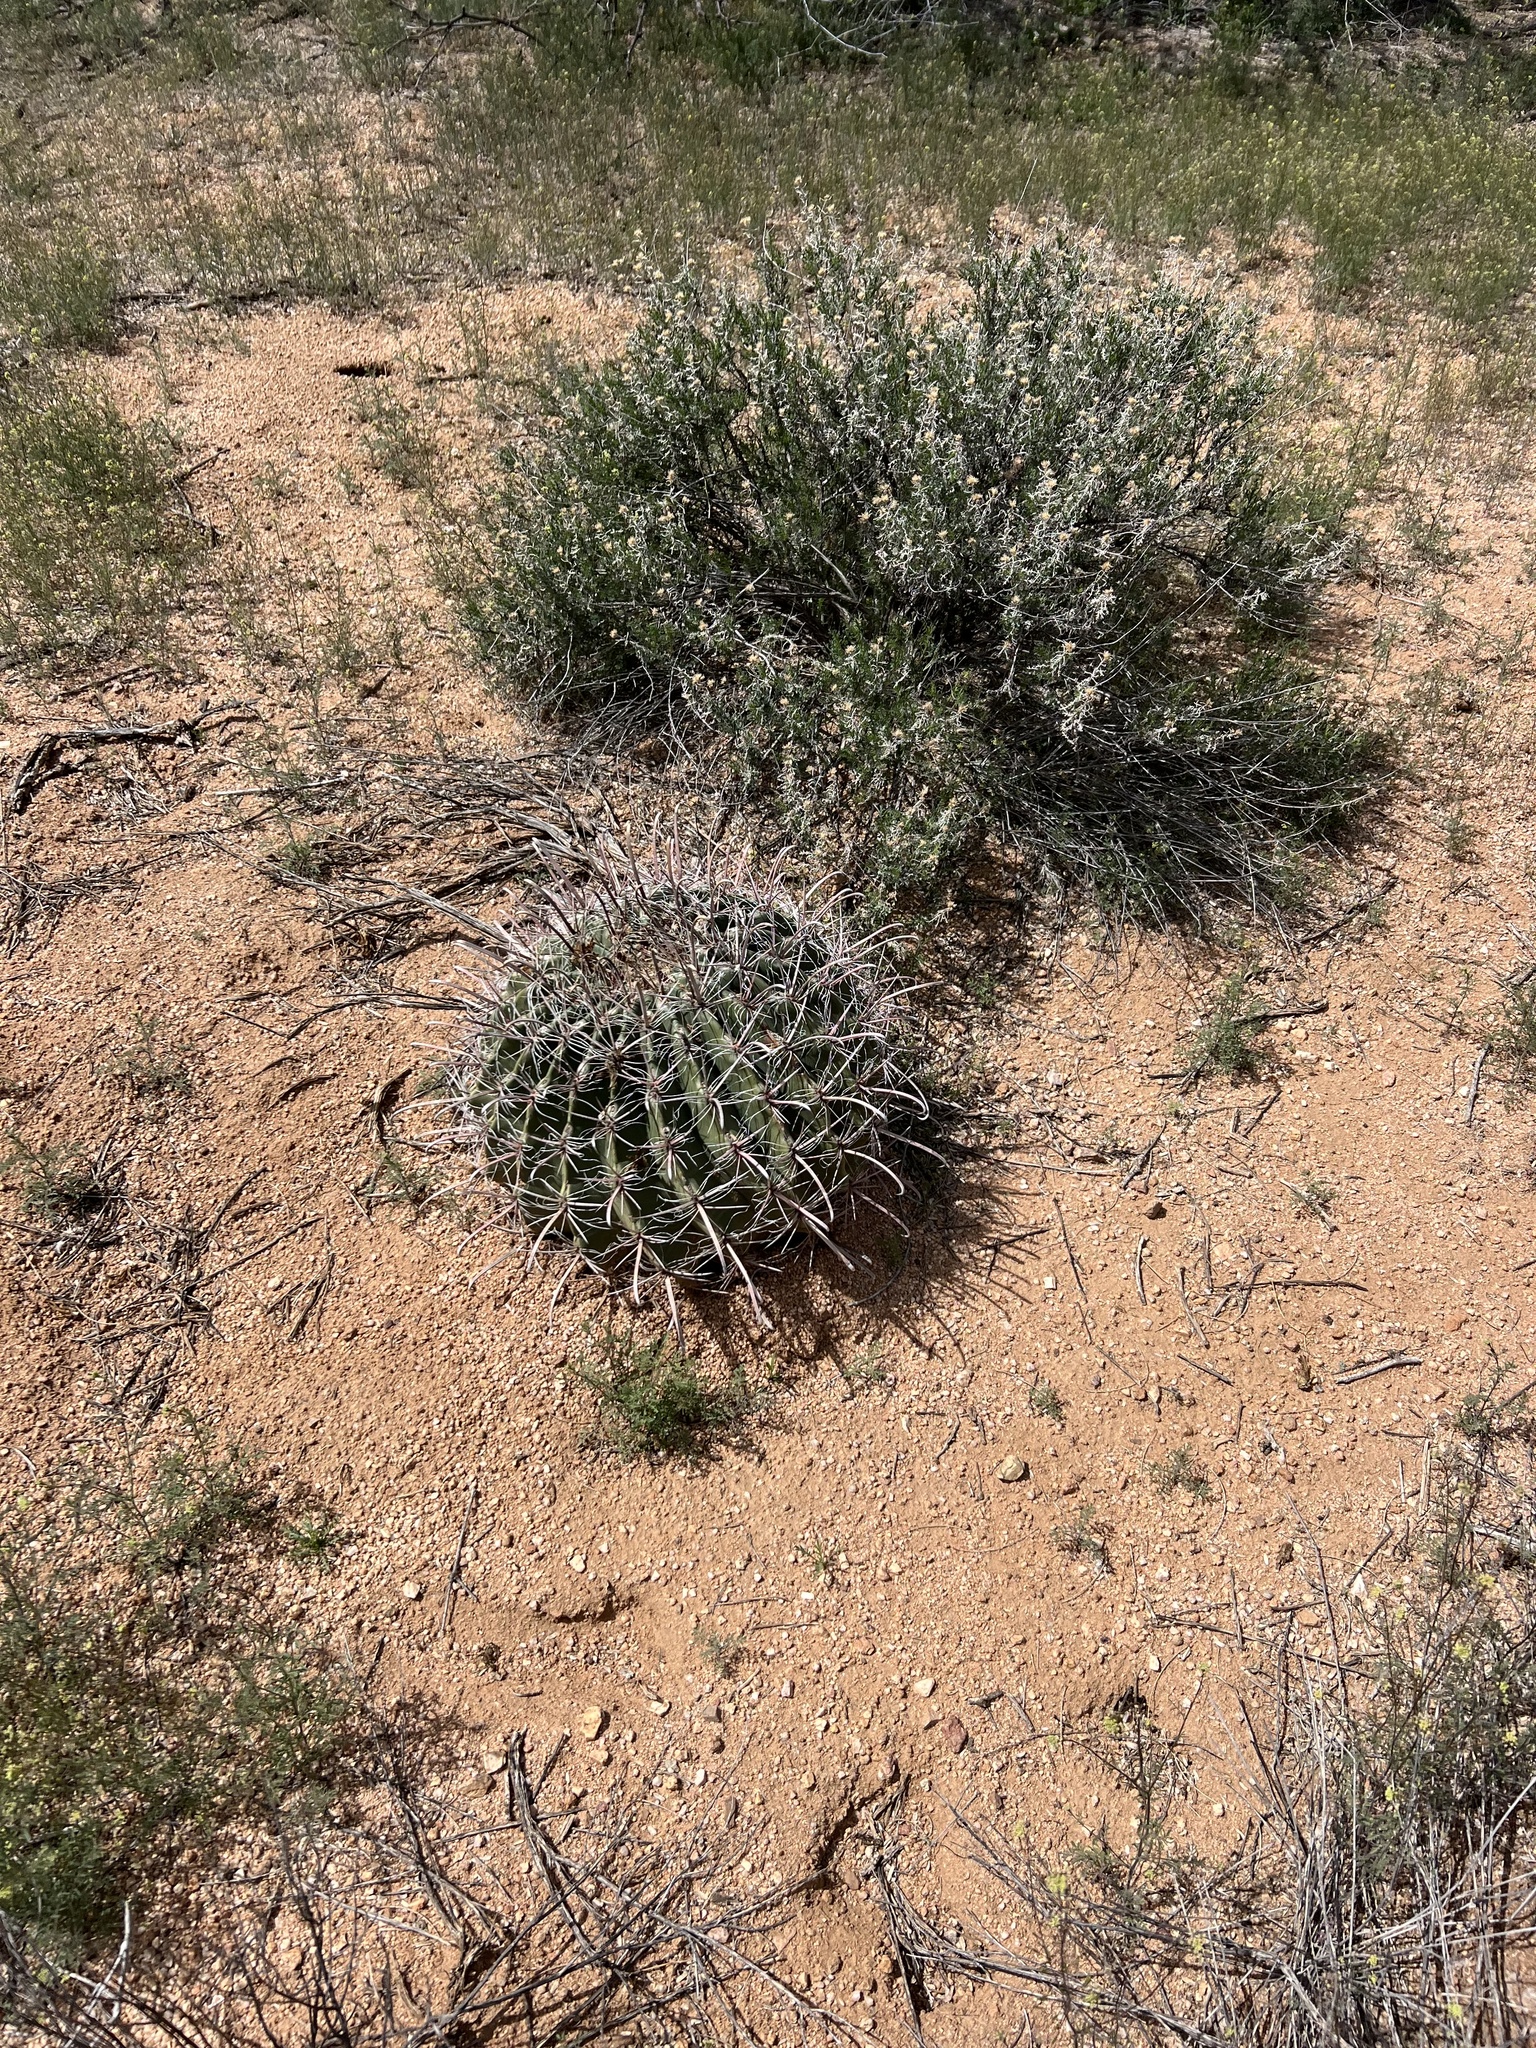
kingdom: Plantae
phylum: Tracheophyta
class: Magnoliopsida
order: Caryophyllales
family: Cactaceae
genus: Ferocactus
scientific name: Ferocactus wislizeni
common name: Candy barrel cactus
